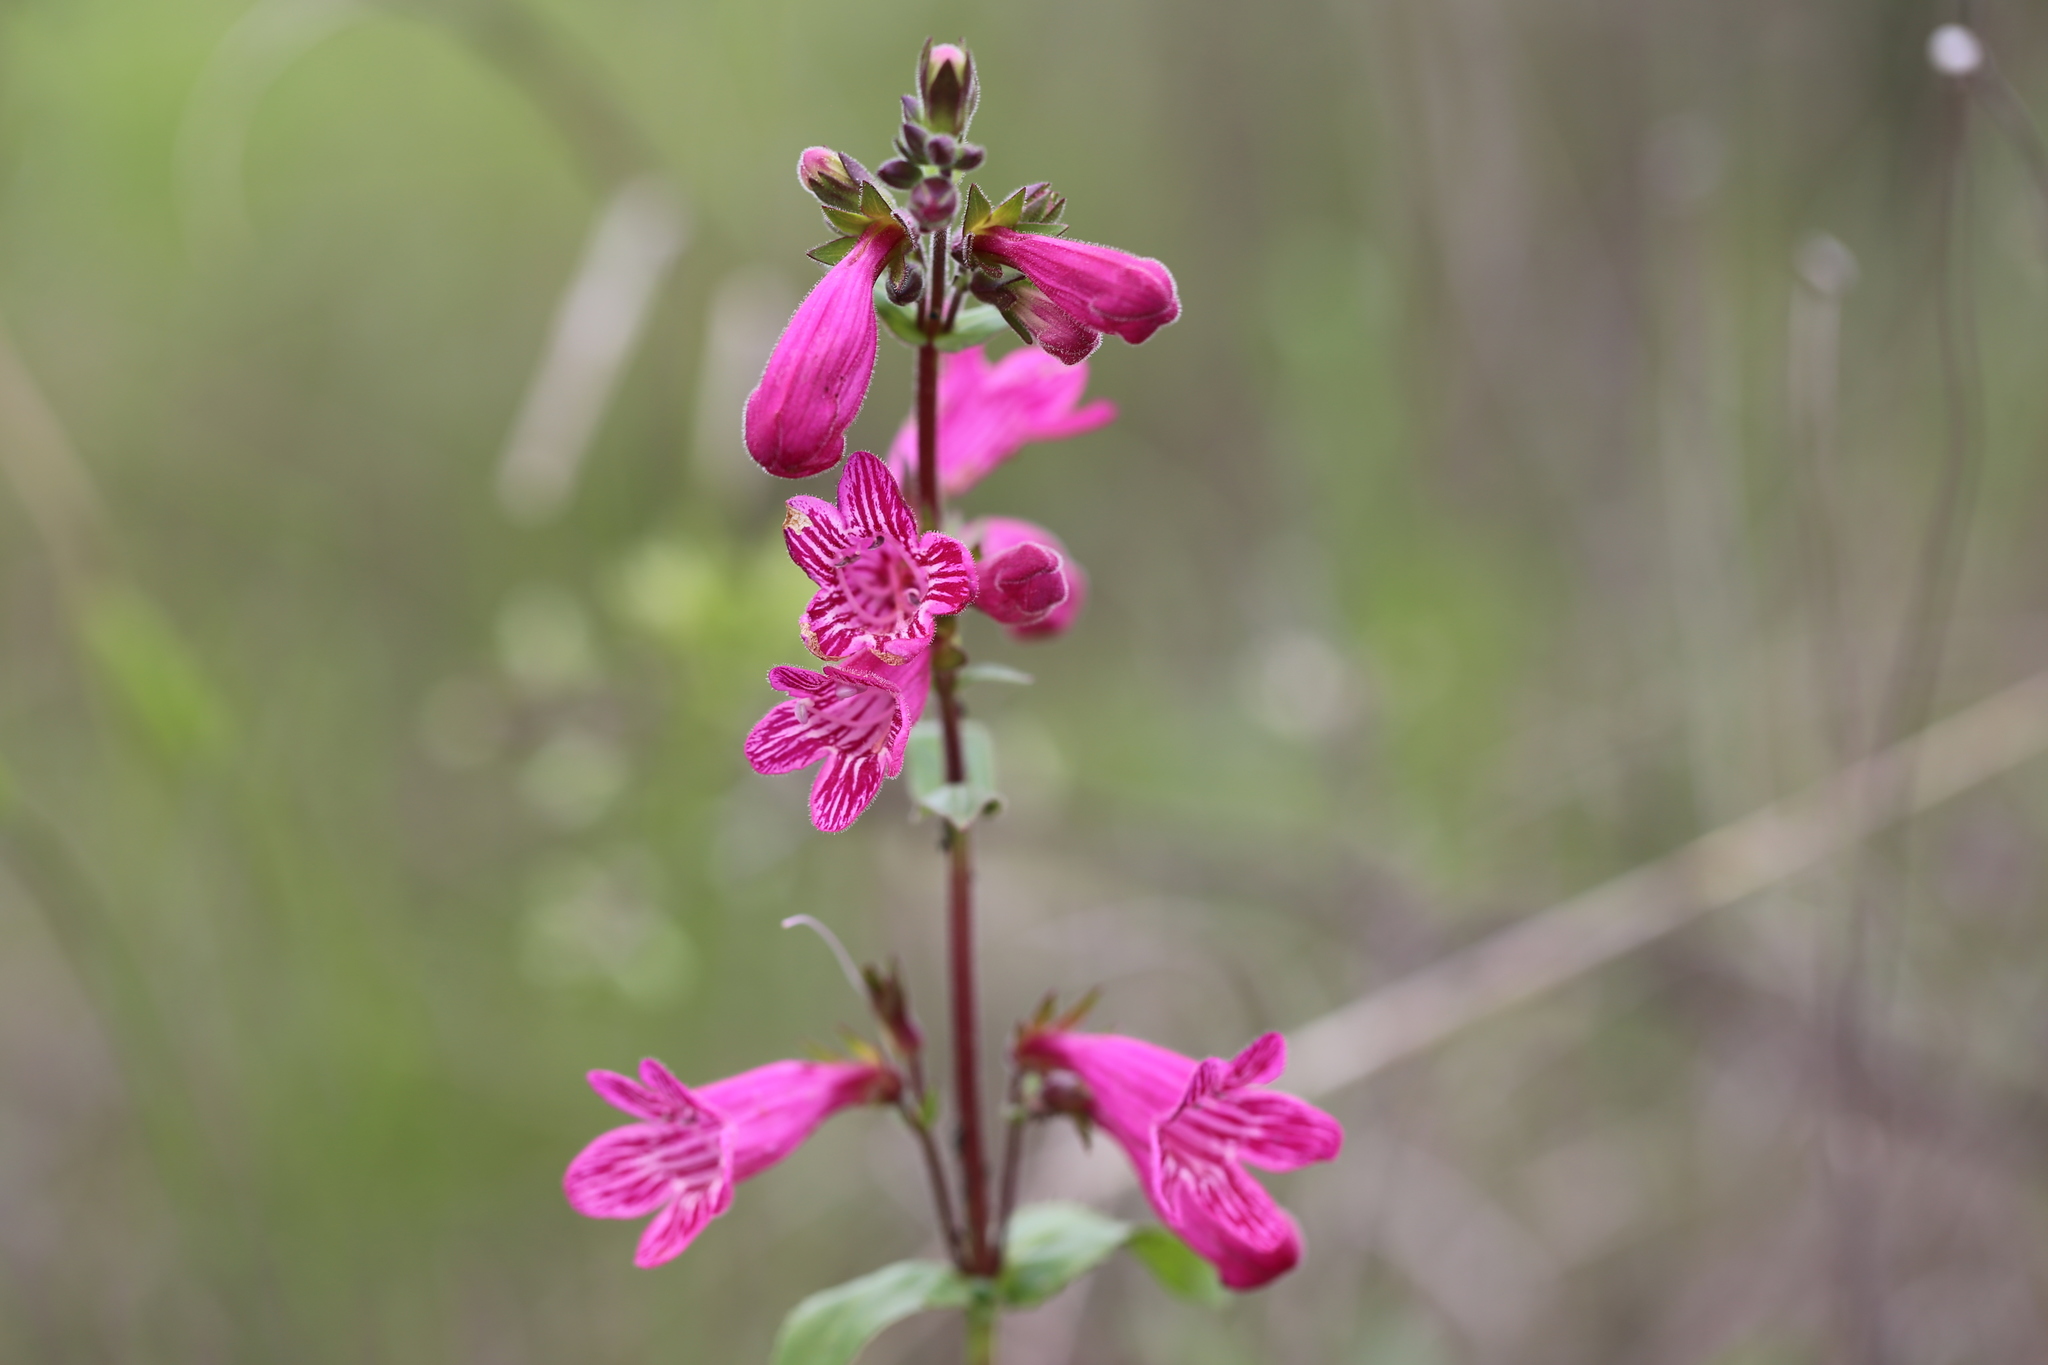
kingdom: Plantae
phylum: Tracheophyta
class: Magnoliopsida
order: Lamiales
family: Plantaginaceae
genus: Penstemon
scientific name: Penstemon triflorus
